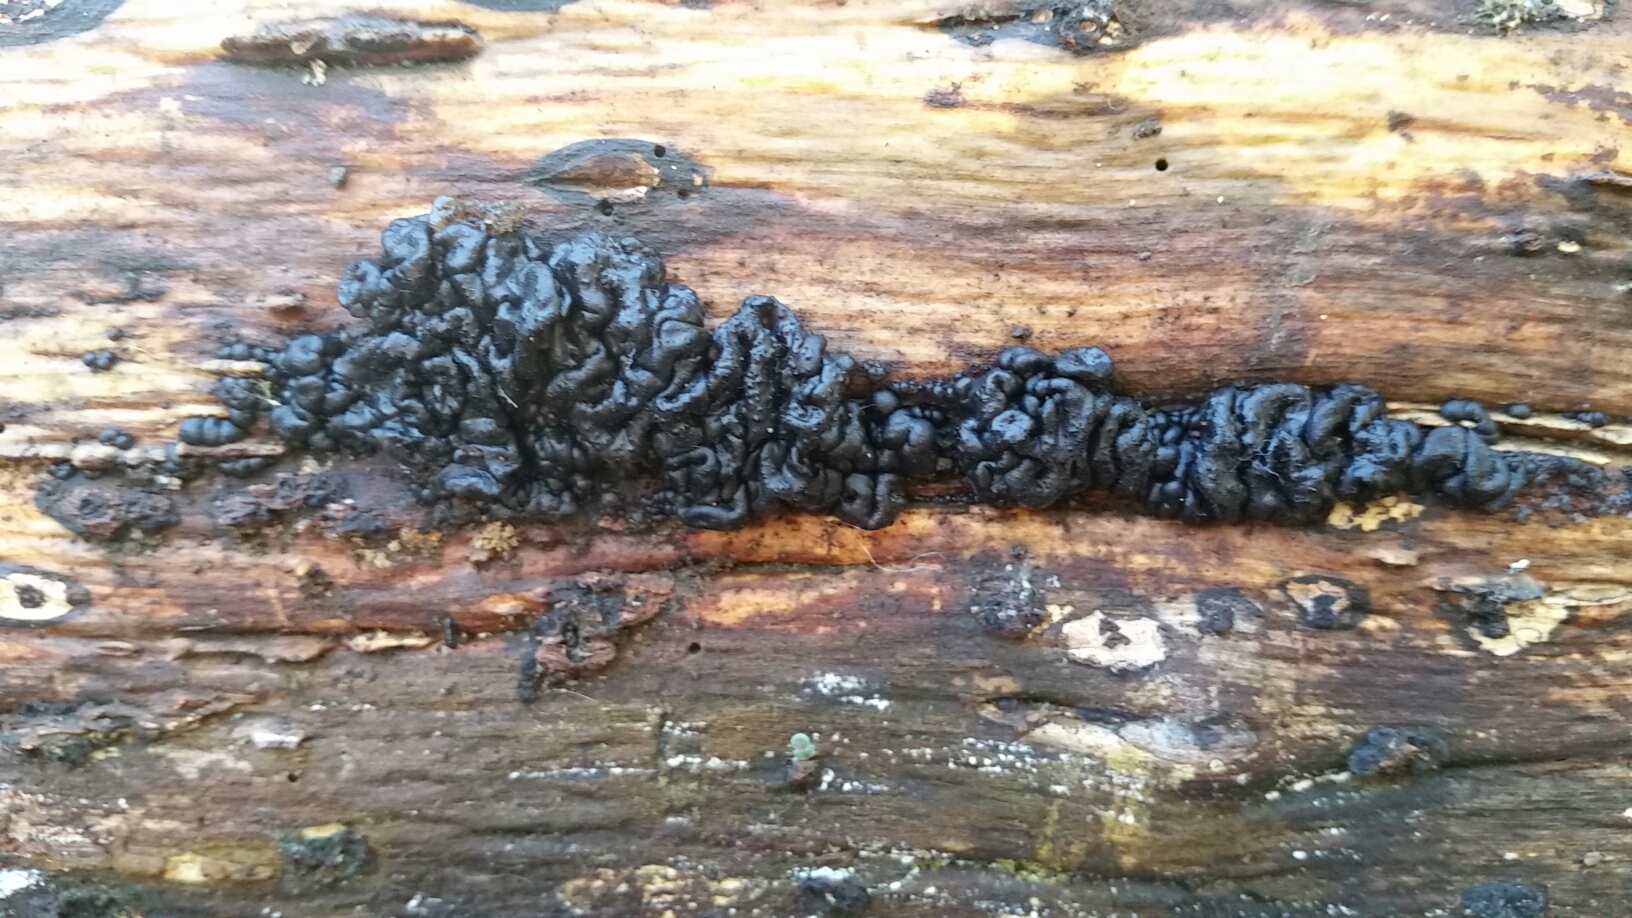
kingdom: Fungi
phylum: Basidiomycota
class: Agaricomycetes
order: Auriculariales
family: Auriculariaceae
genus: Exidia
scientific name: Exidia glandulosa
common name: Witches' butter
